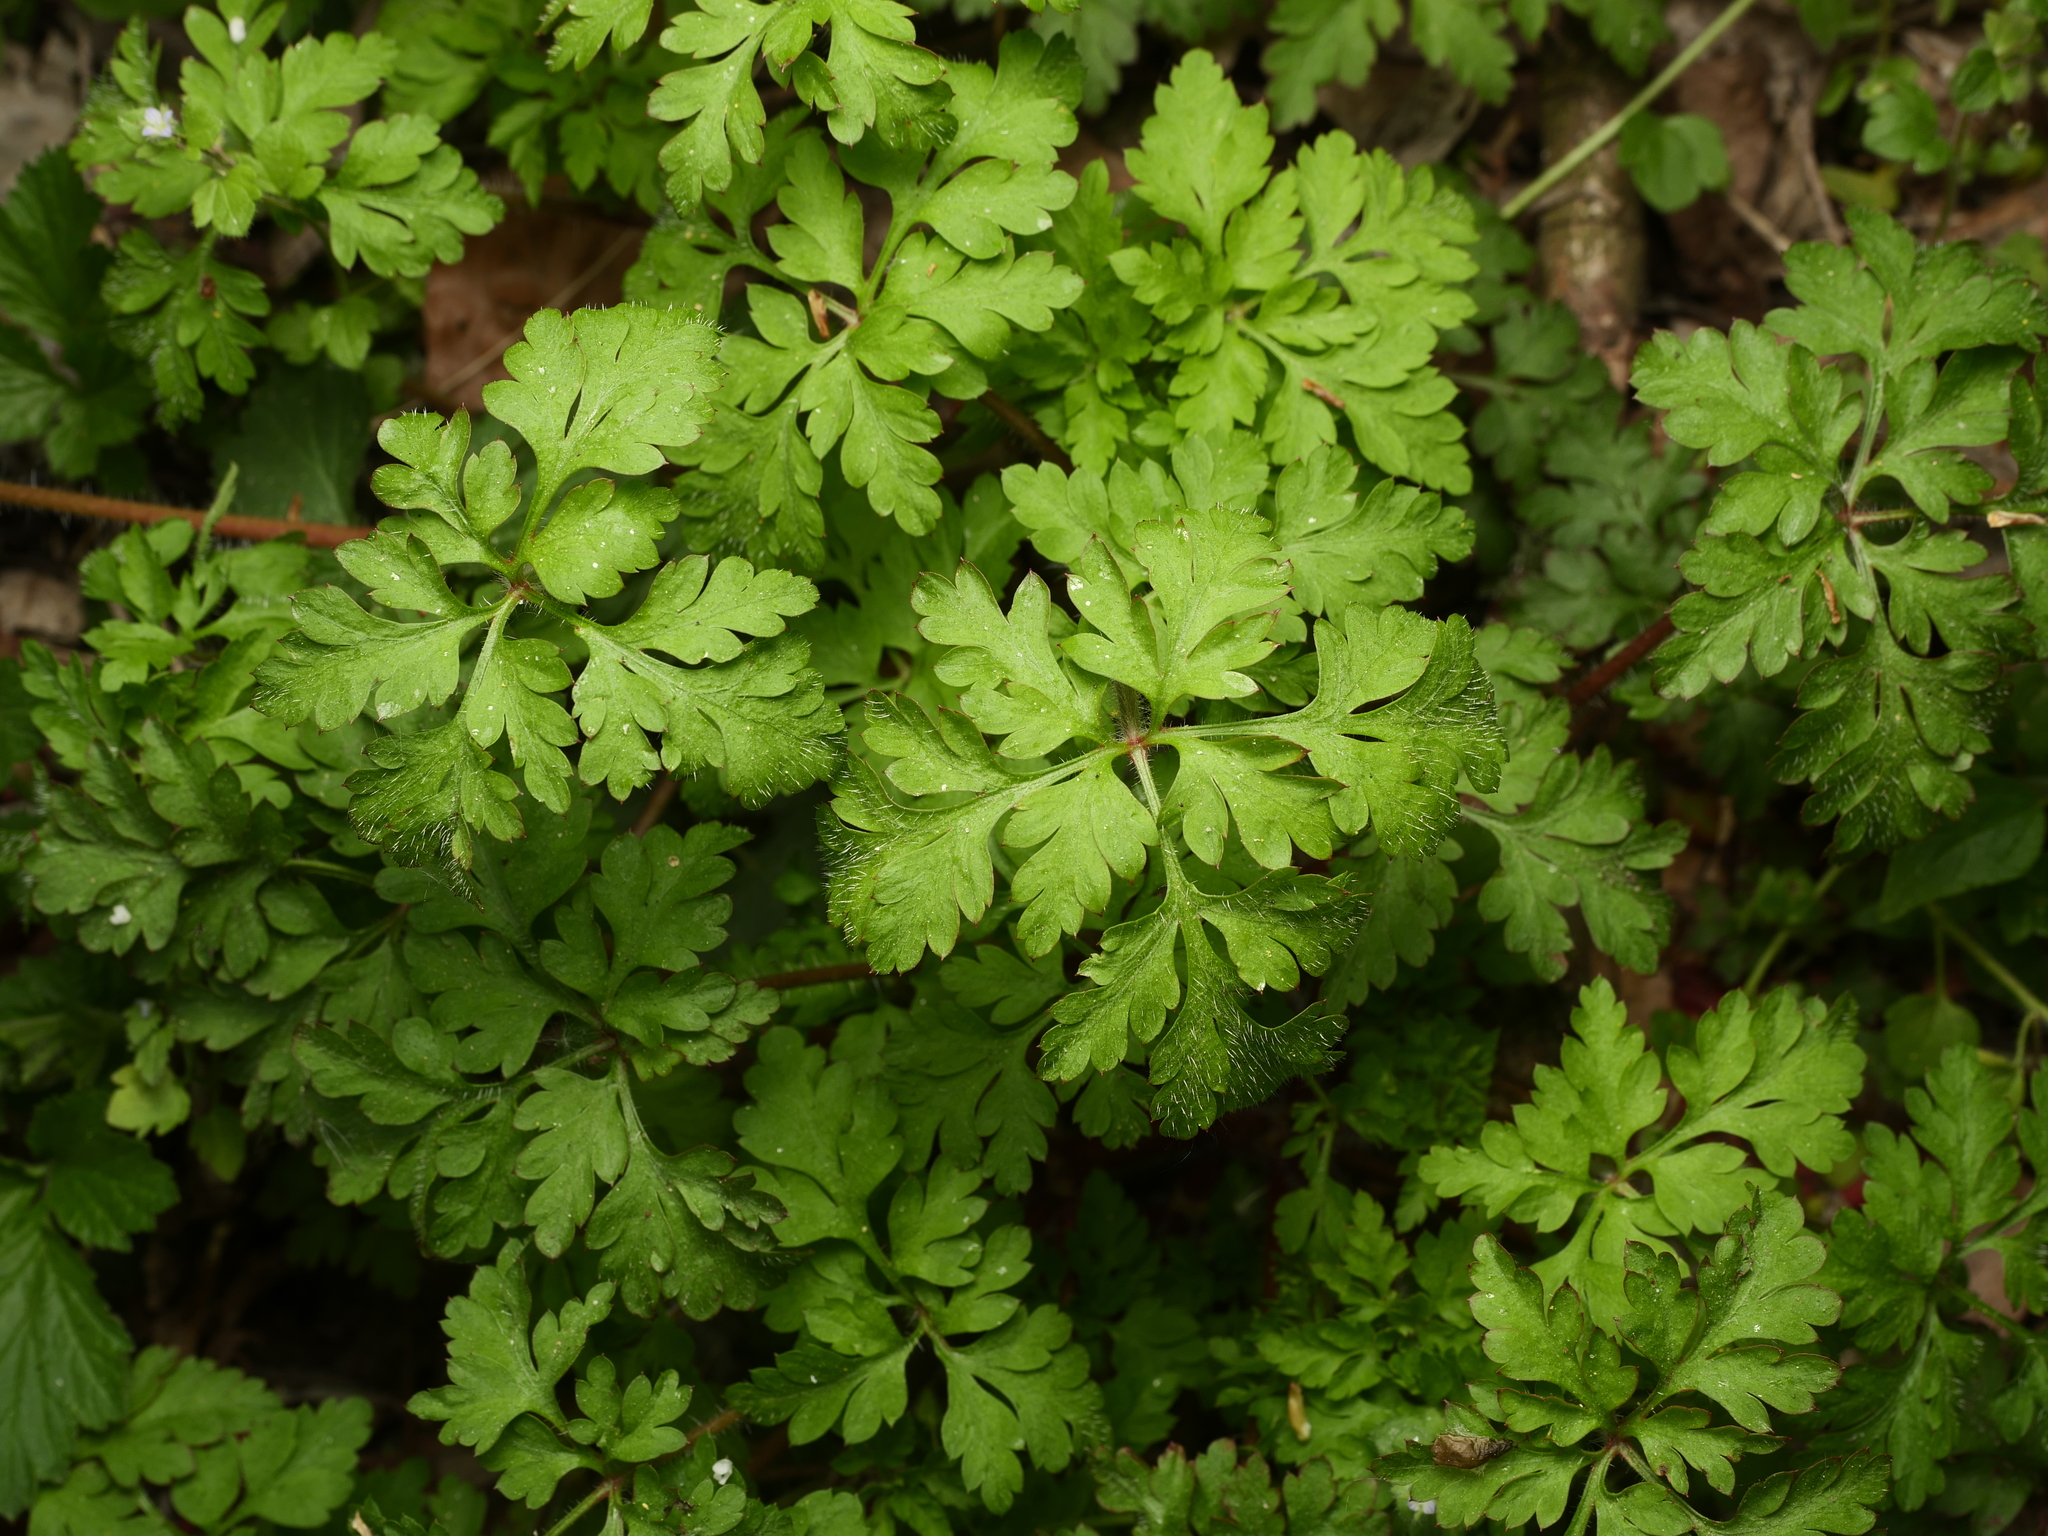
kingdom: Plantae
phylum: Tracheophyta
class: Magnoliopsida
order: Geraniales
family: Geraniaceae
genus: Geranium
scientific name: Geranium robertianum
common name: Herb-robert
